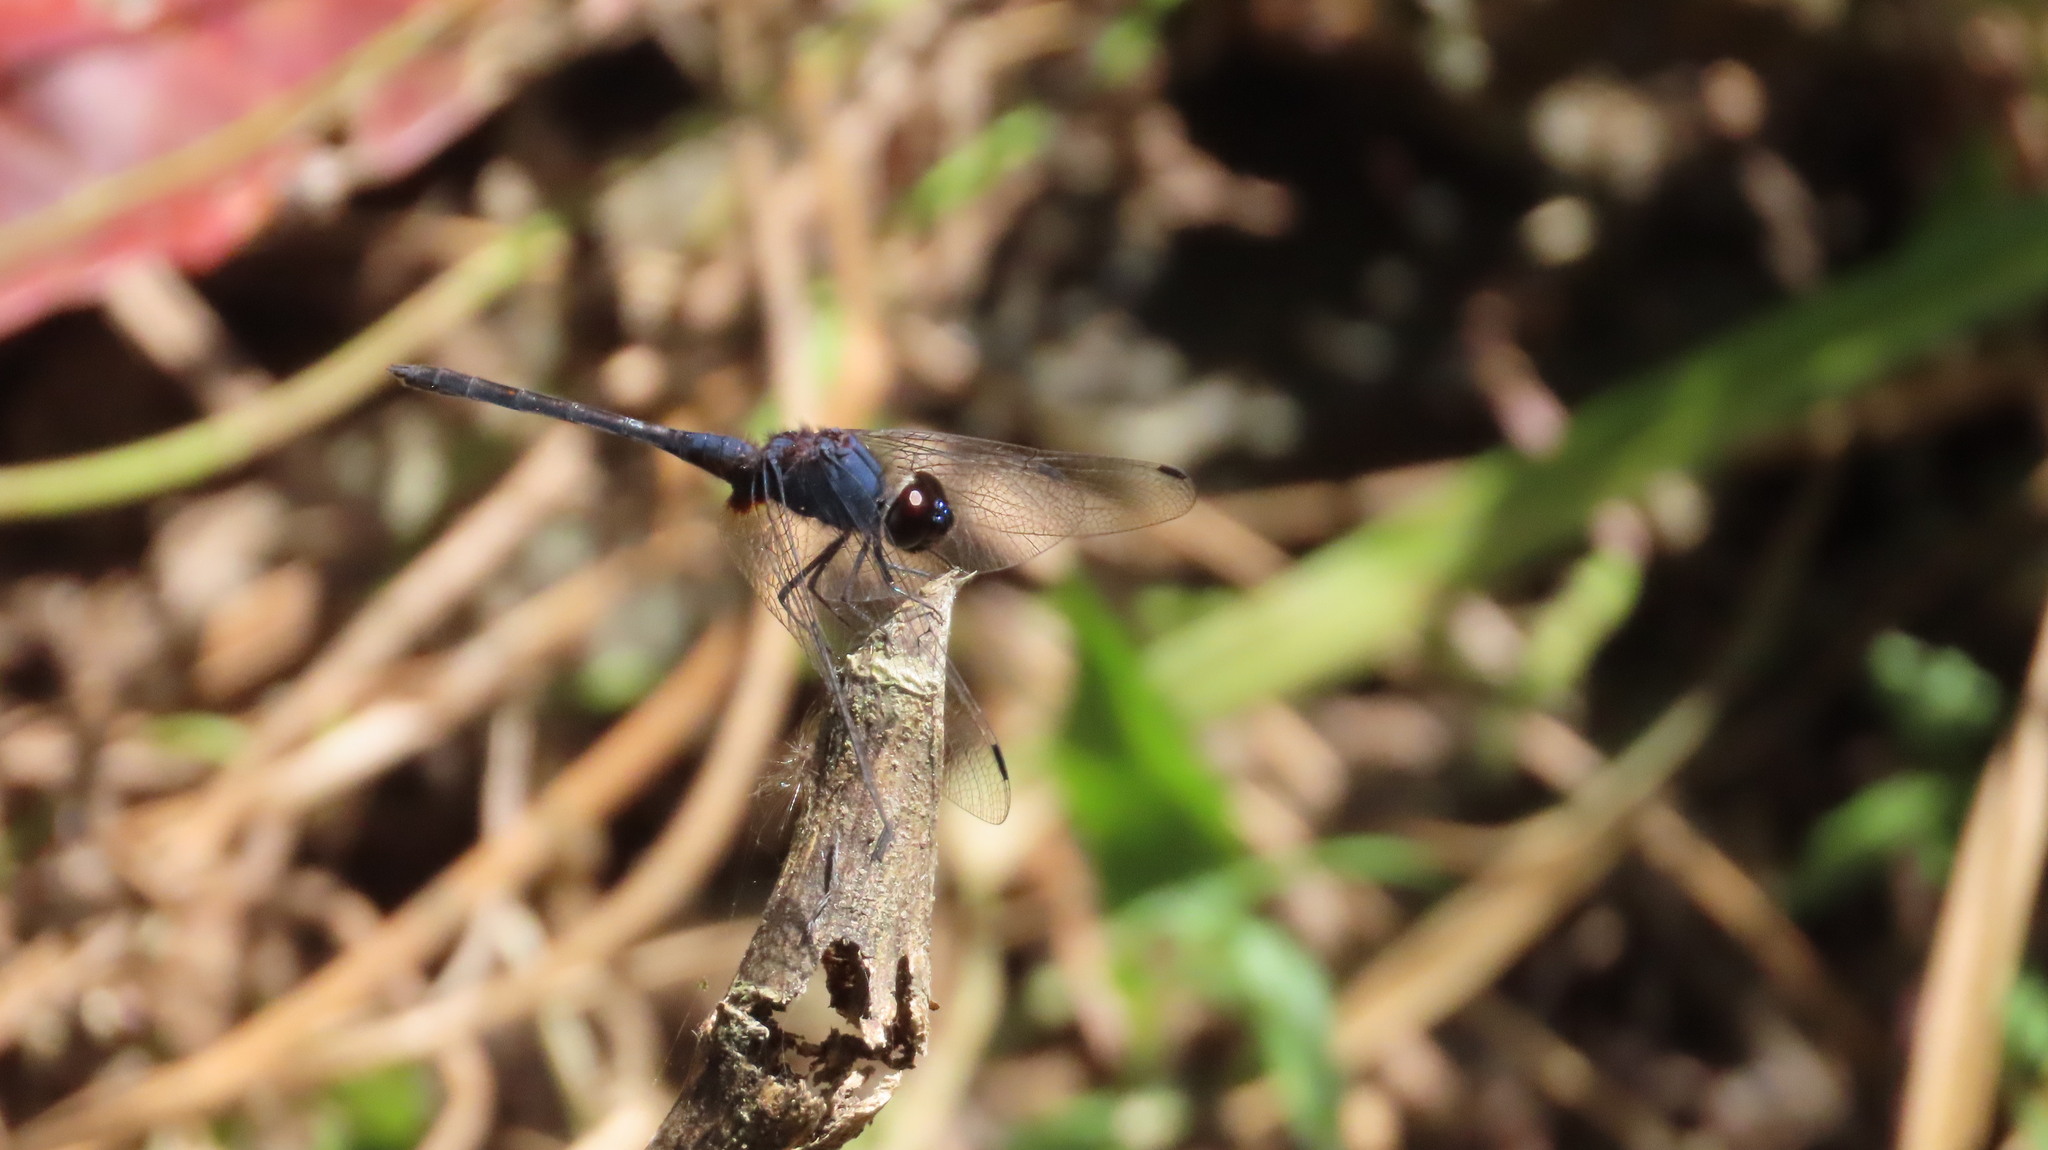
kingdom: Animalia
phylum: Arthropoda
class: Insecta
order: Odonata
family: Libellulidae
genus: Trithemis
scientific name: Trithemis festiva
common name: Indigo dropwing
